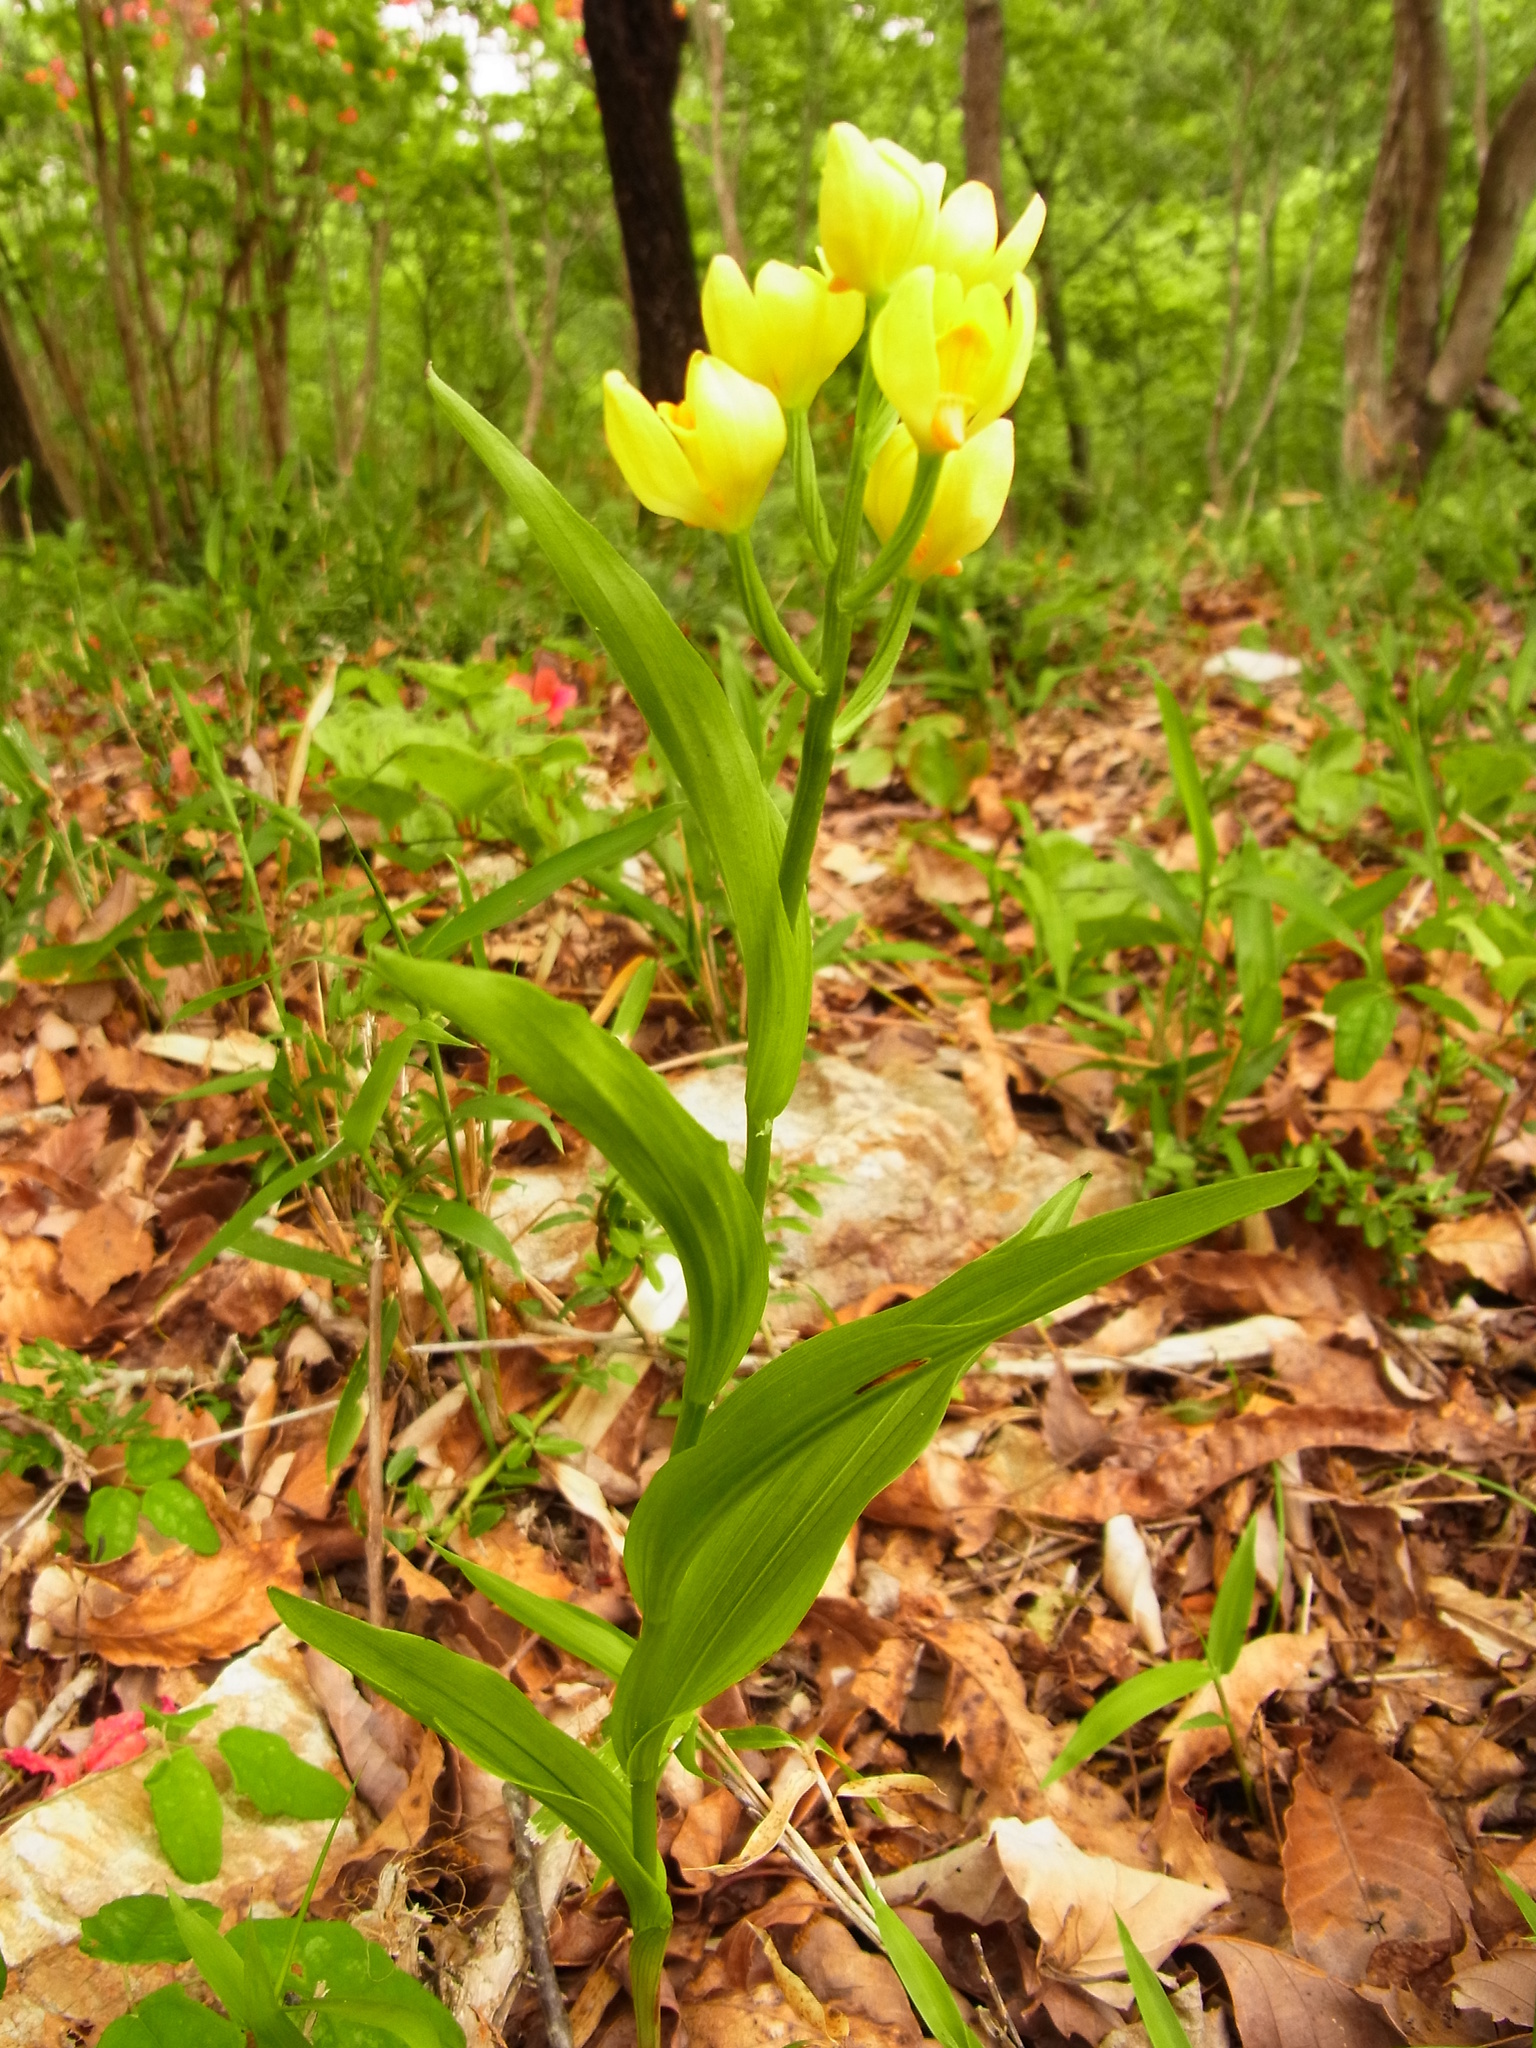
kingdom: Plantae
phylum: Tracheophyta
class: Liliopsida
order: Asparagales
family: Orchidaceae
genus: Cephalanthera
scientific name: Cephalanthera falcata
